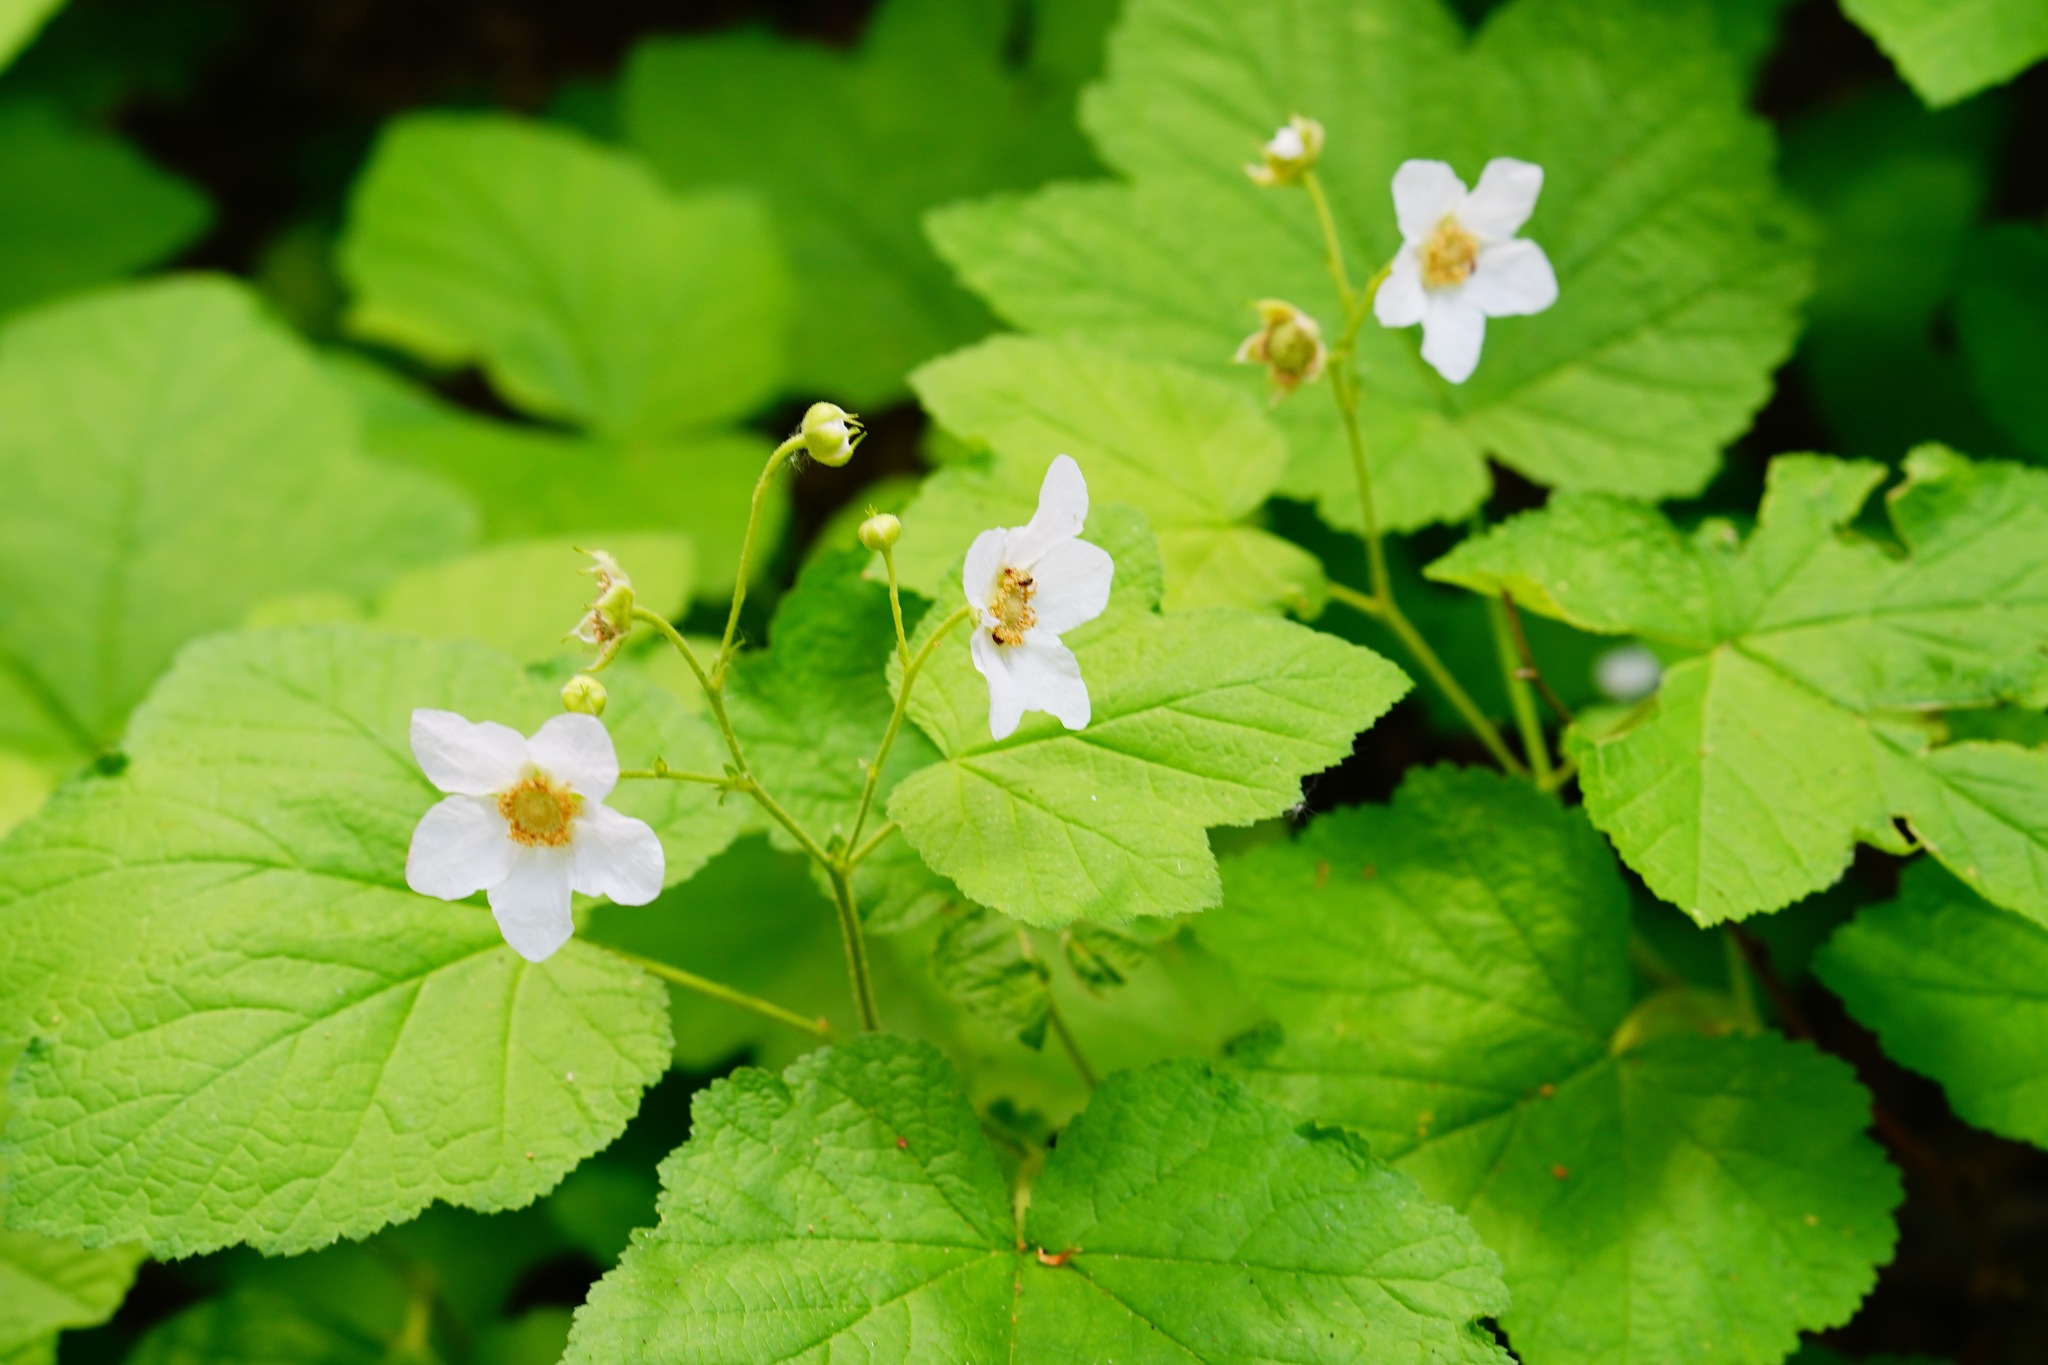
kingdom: Plantae
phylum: Tracheophyta
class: Magnoliopsida
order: Rosales
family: Rosaceae
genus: Rubus
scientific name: Rubus parviflorus
